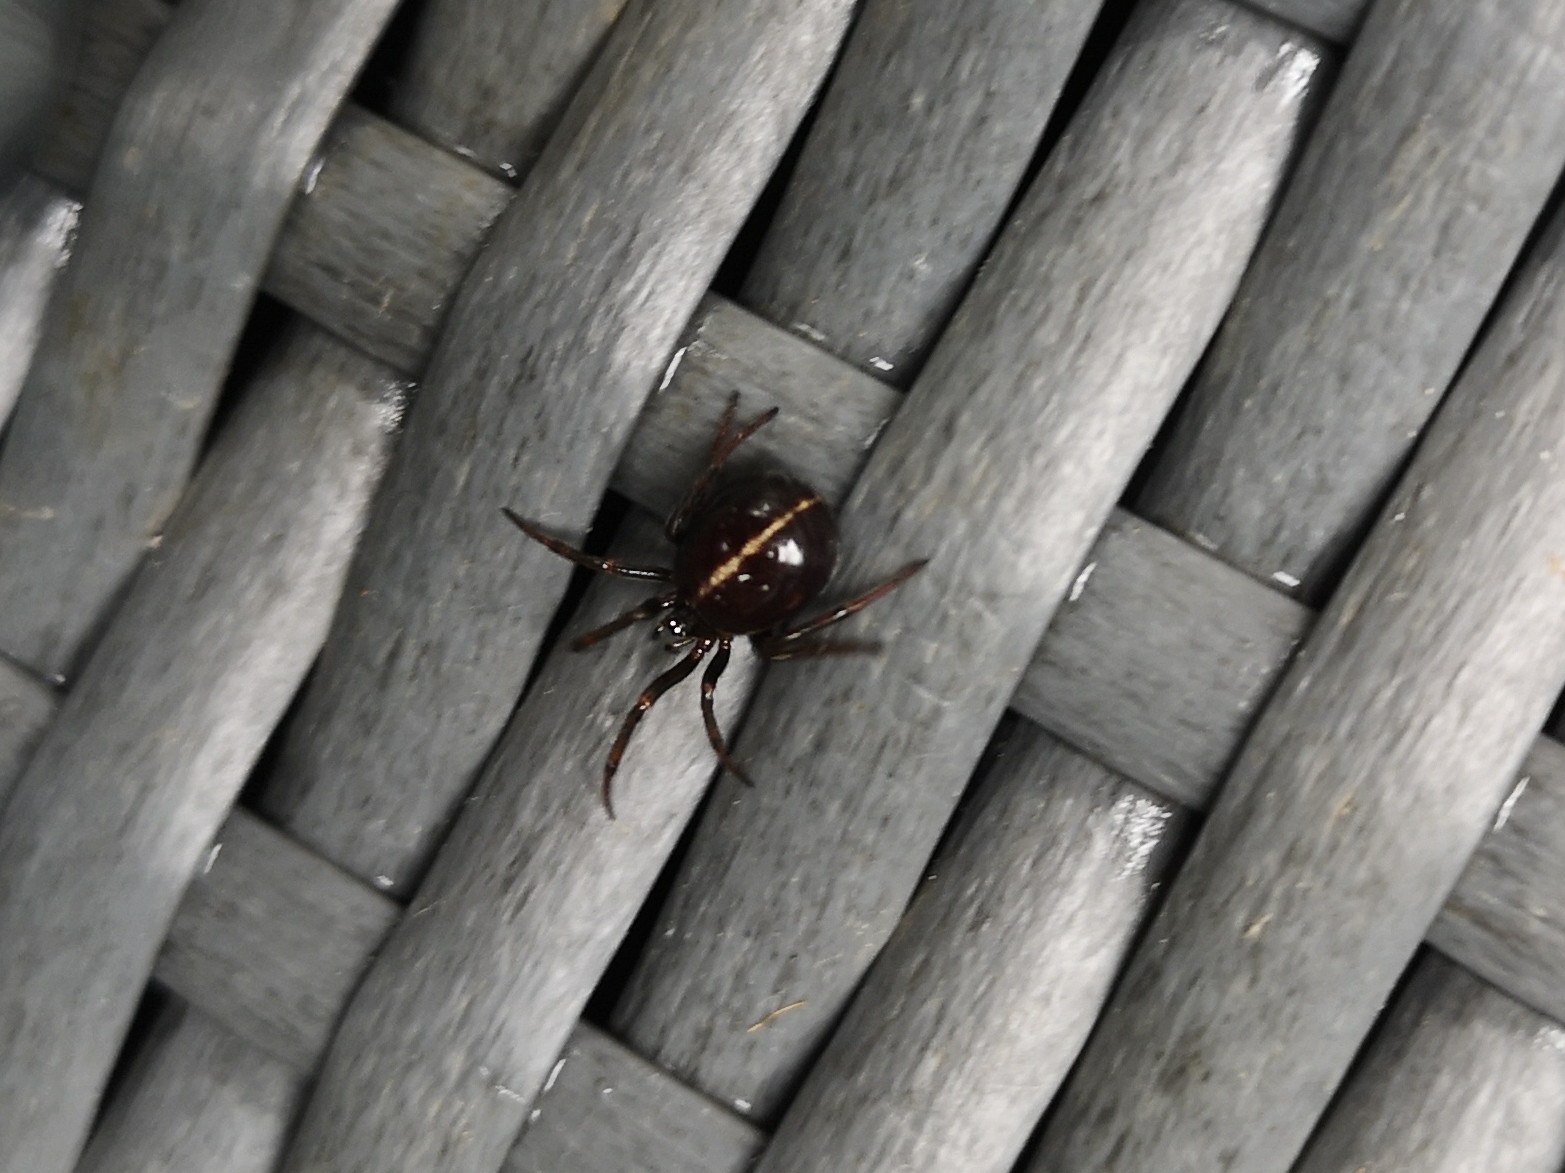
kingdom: Animalia
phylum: Arthropoda
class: Arachnida
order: Araneae
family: Theridiidae
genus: Steatoda
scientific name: Steatoda bipunctata
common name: False widow
